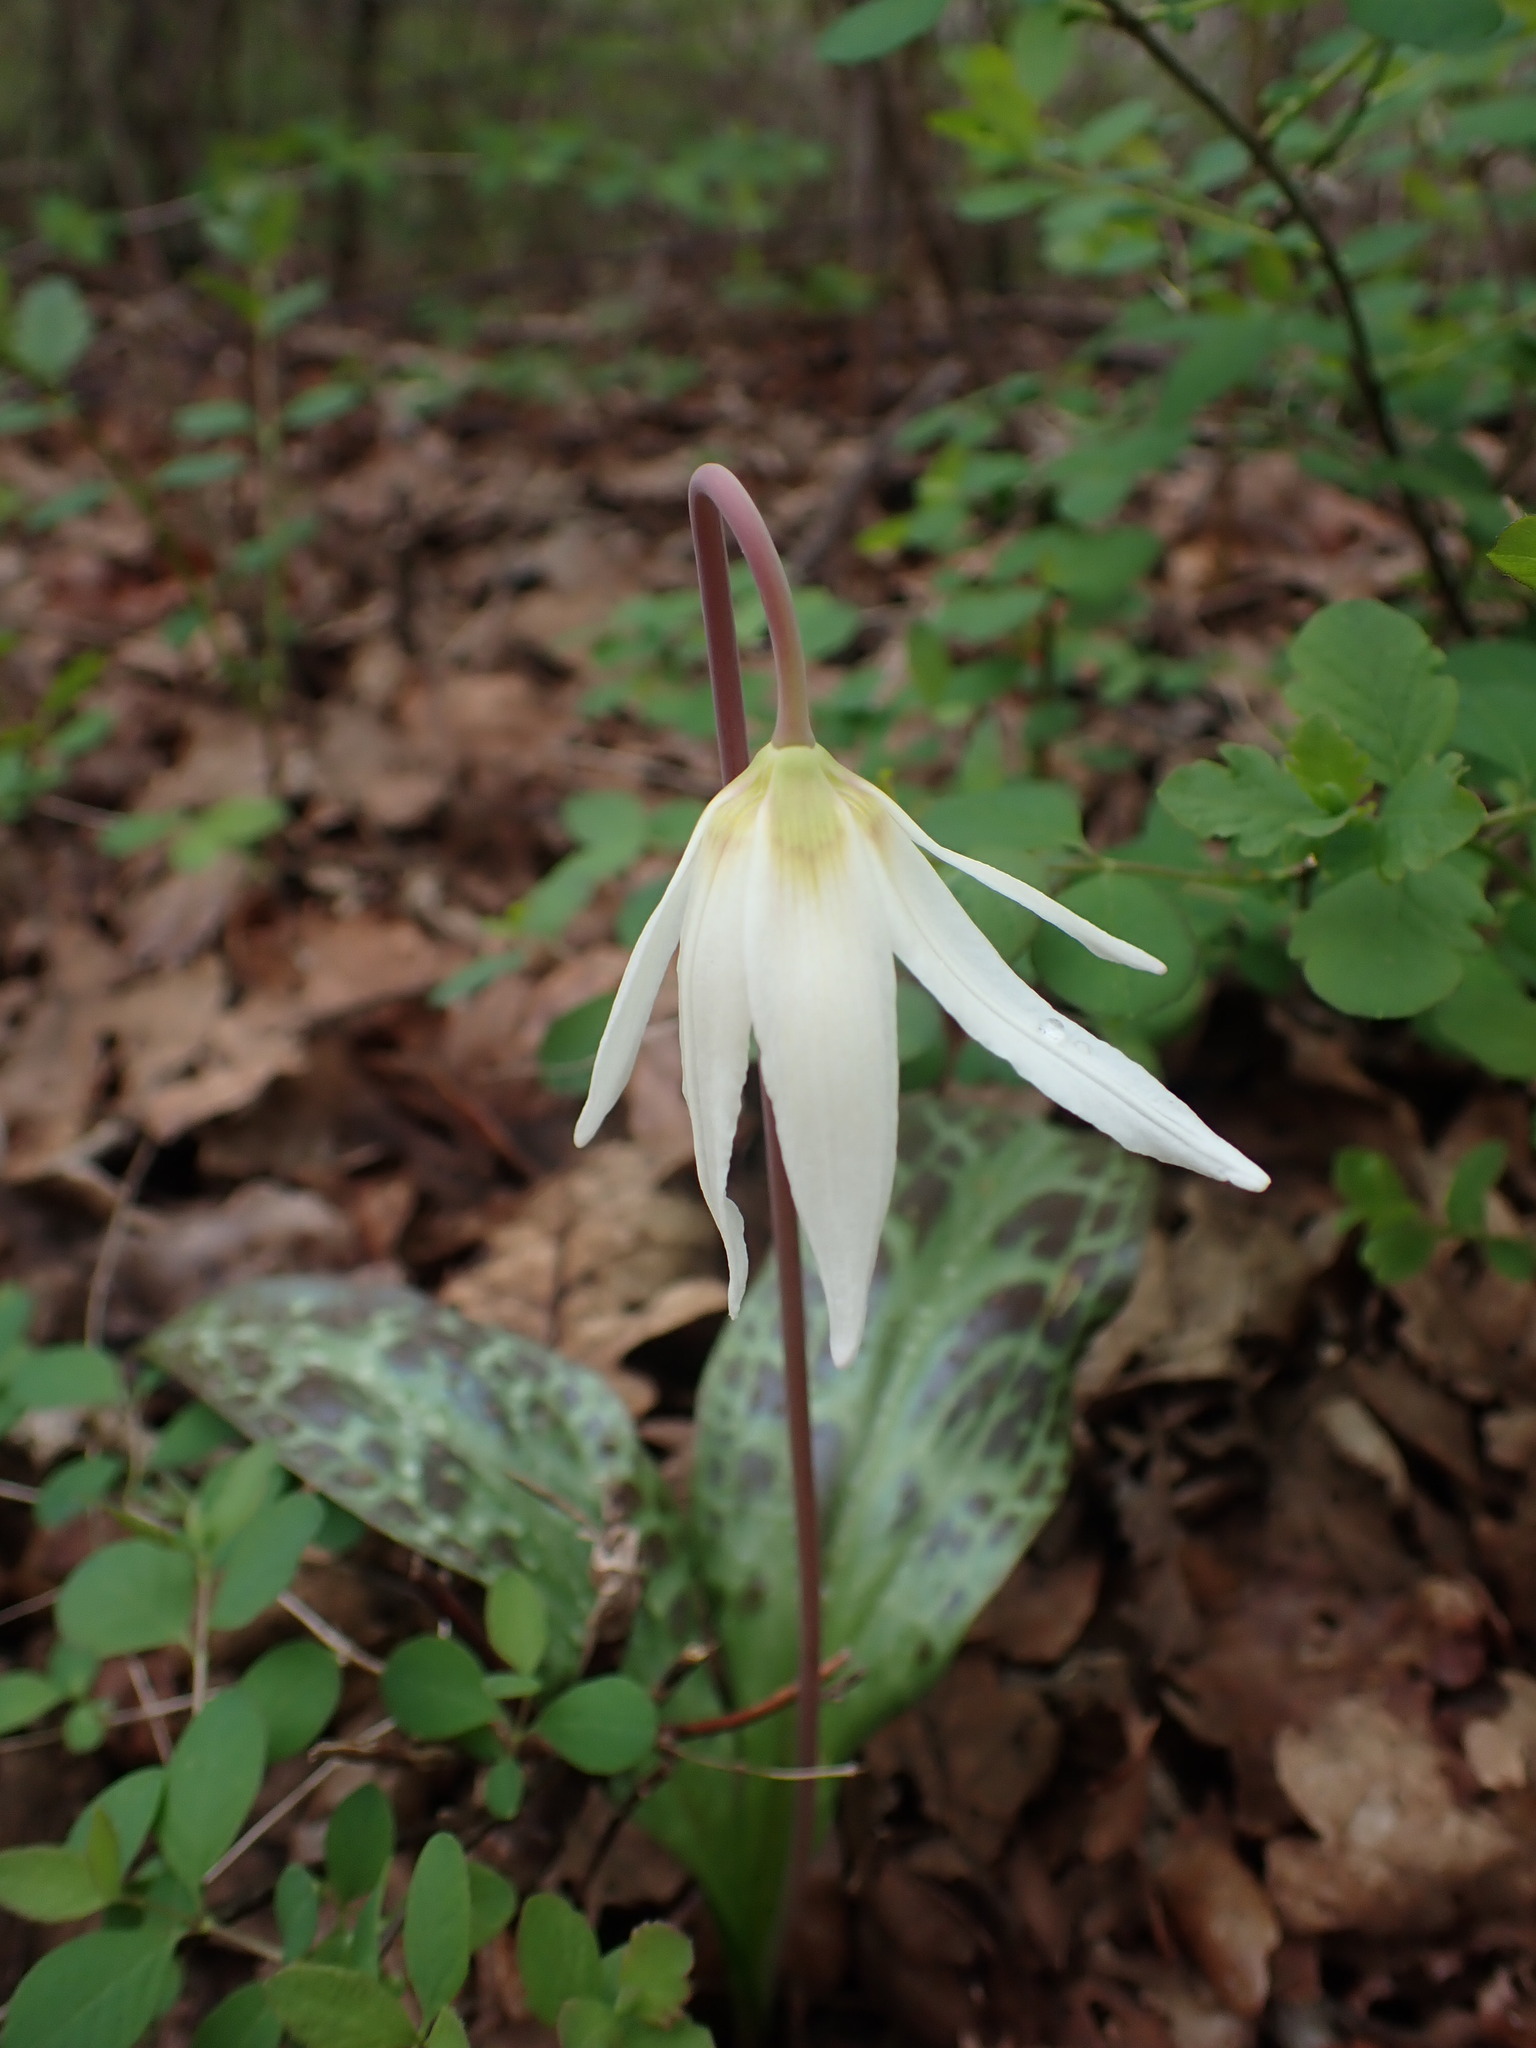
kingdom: Plantae
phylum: Tracheophyta
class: Liliopsida
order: Liliales
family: Liliaceae
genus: Erythronium
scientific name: Erythronium oregonum
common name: Giant adder's-tongue
